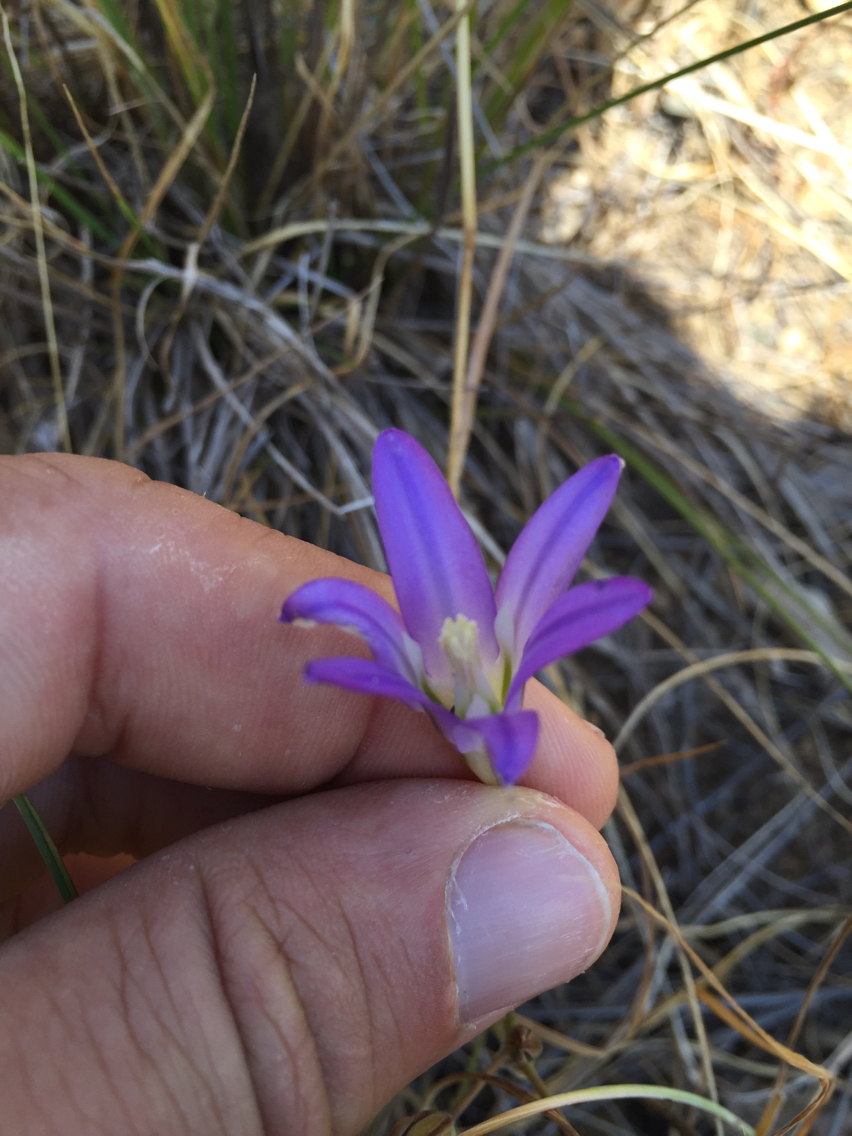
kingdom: Plantae
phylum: Tracheophyta
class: Liliopsida
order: Asparagales
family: Asparagaceae
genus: Brodiaea
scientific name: Brodiaea elegans
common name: Elegant cluster-lily
